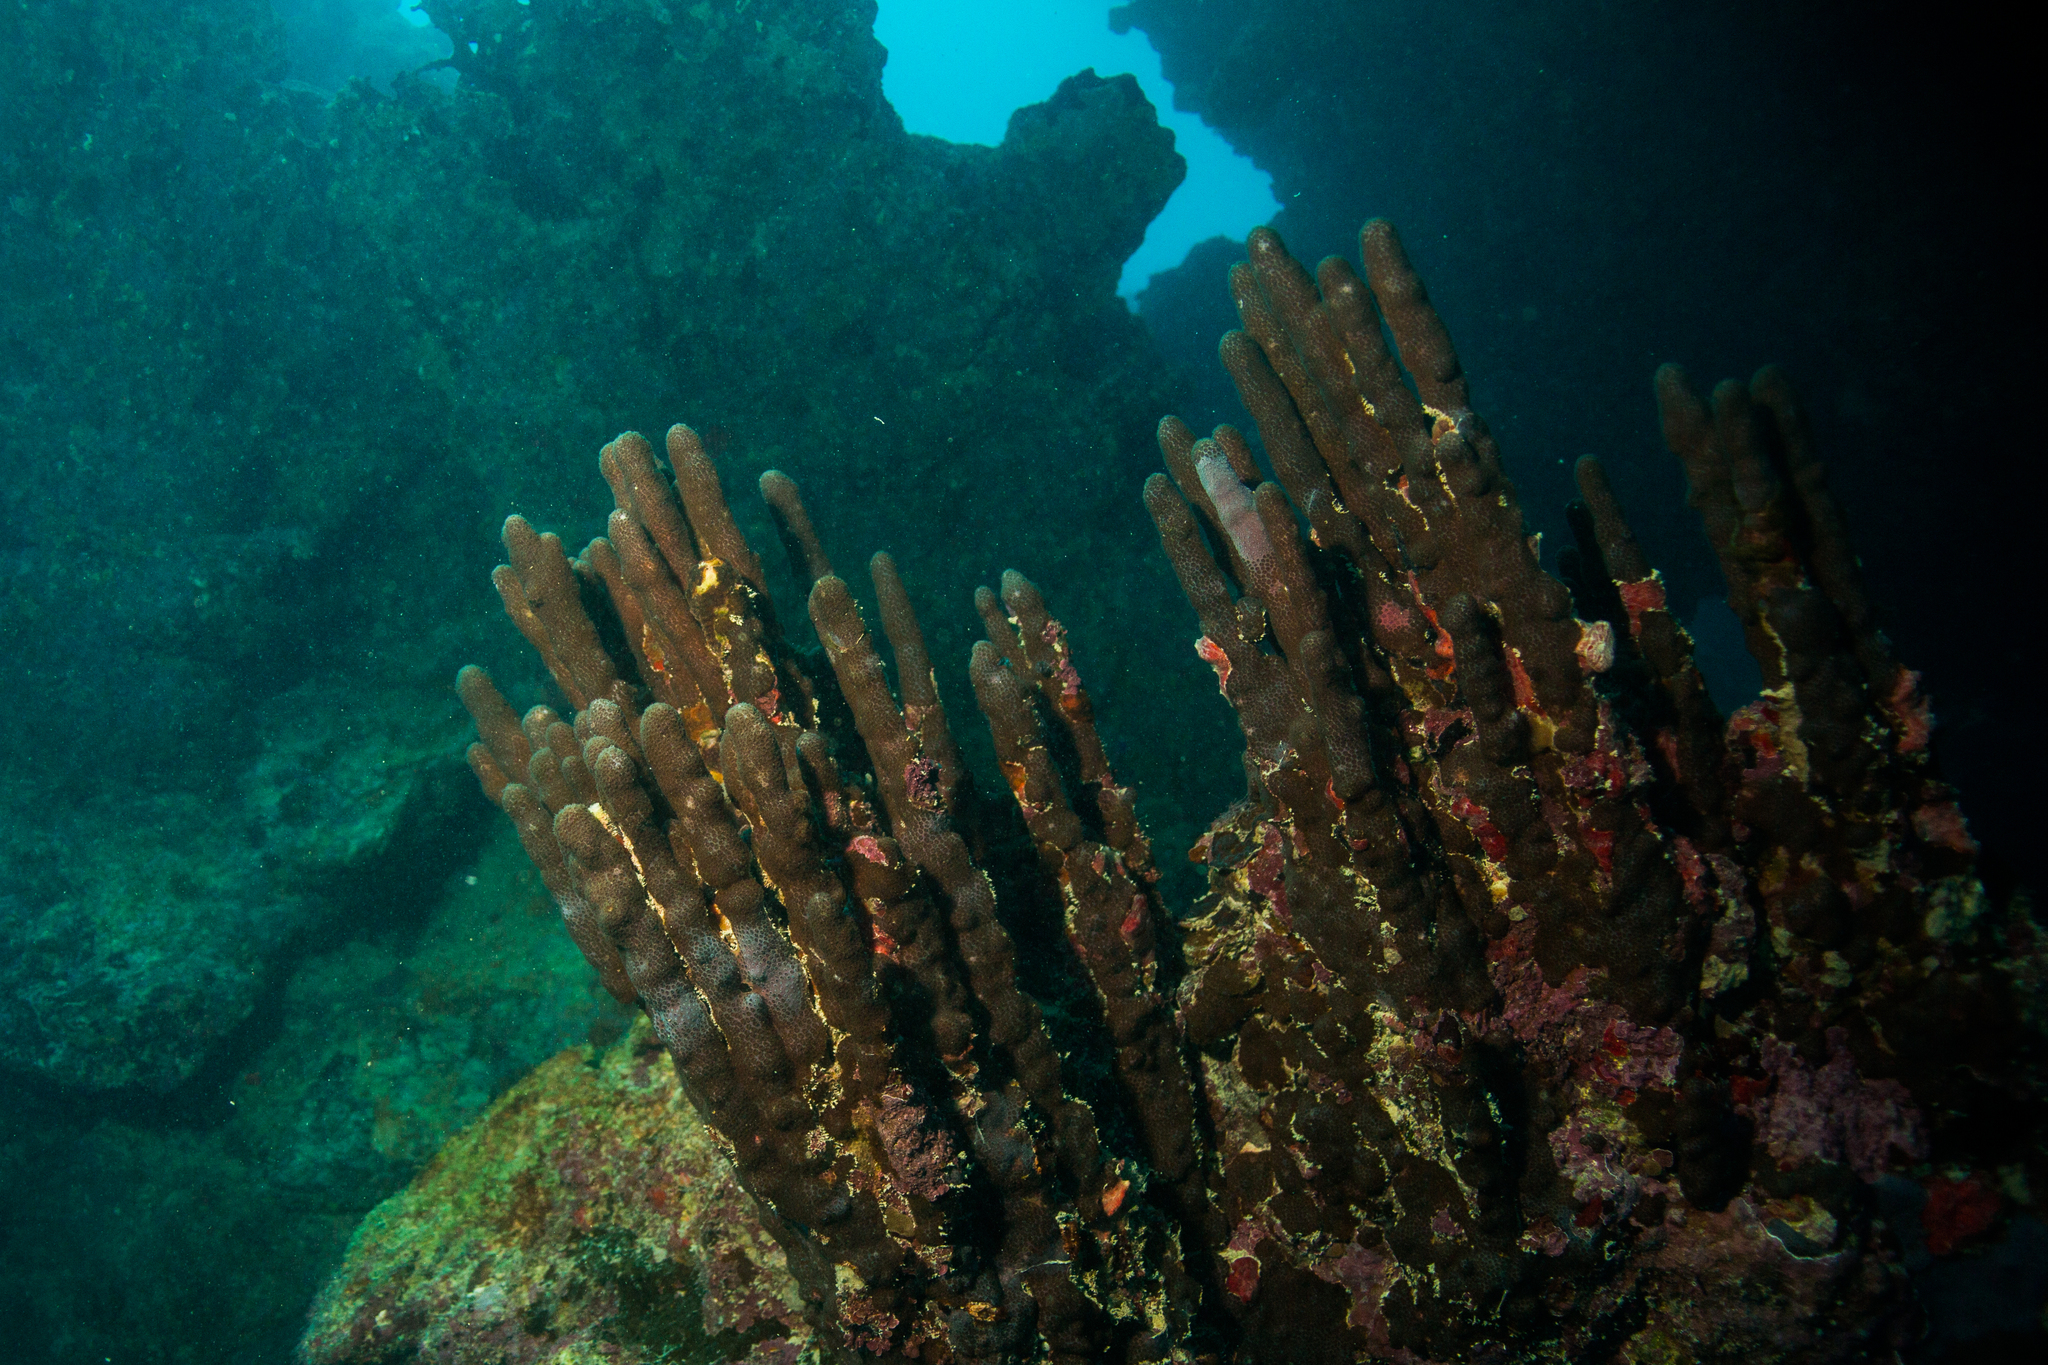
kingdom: Animalia
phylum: Cnidaria
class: Anthozoa
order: Scleractinia
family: Poritidae
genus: Porites
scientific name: Porites branneri
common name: Blue crust coral
